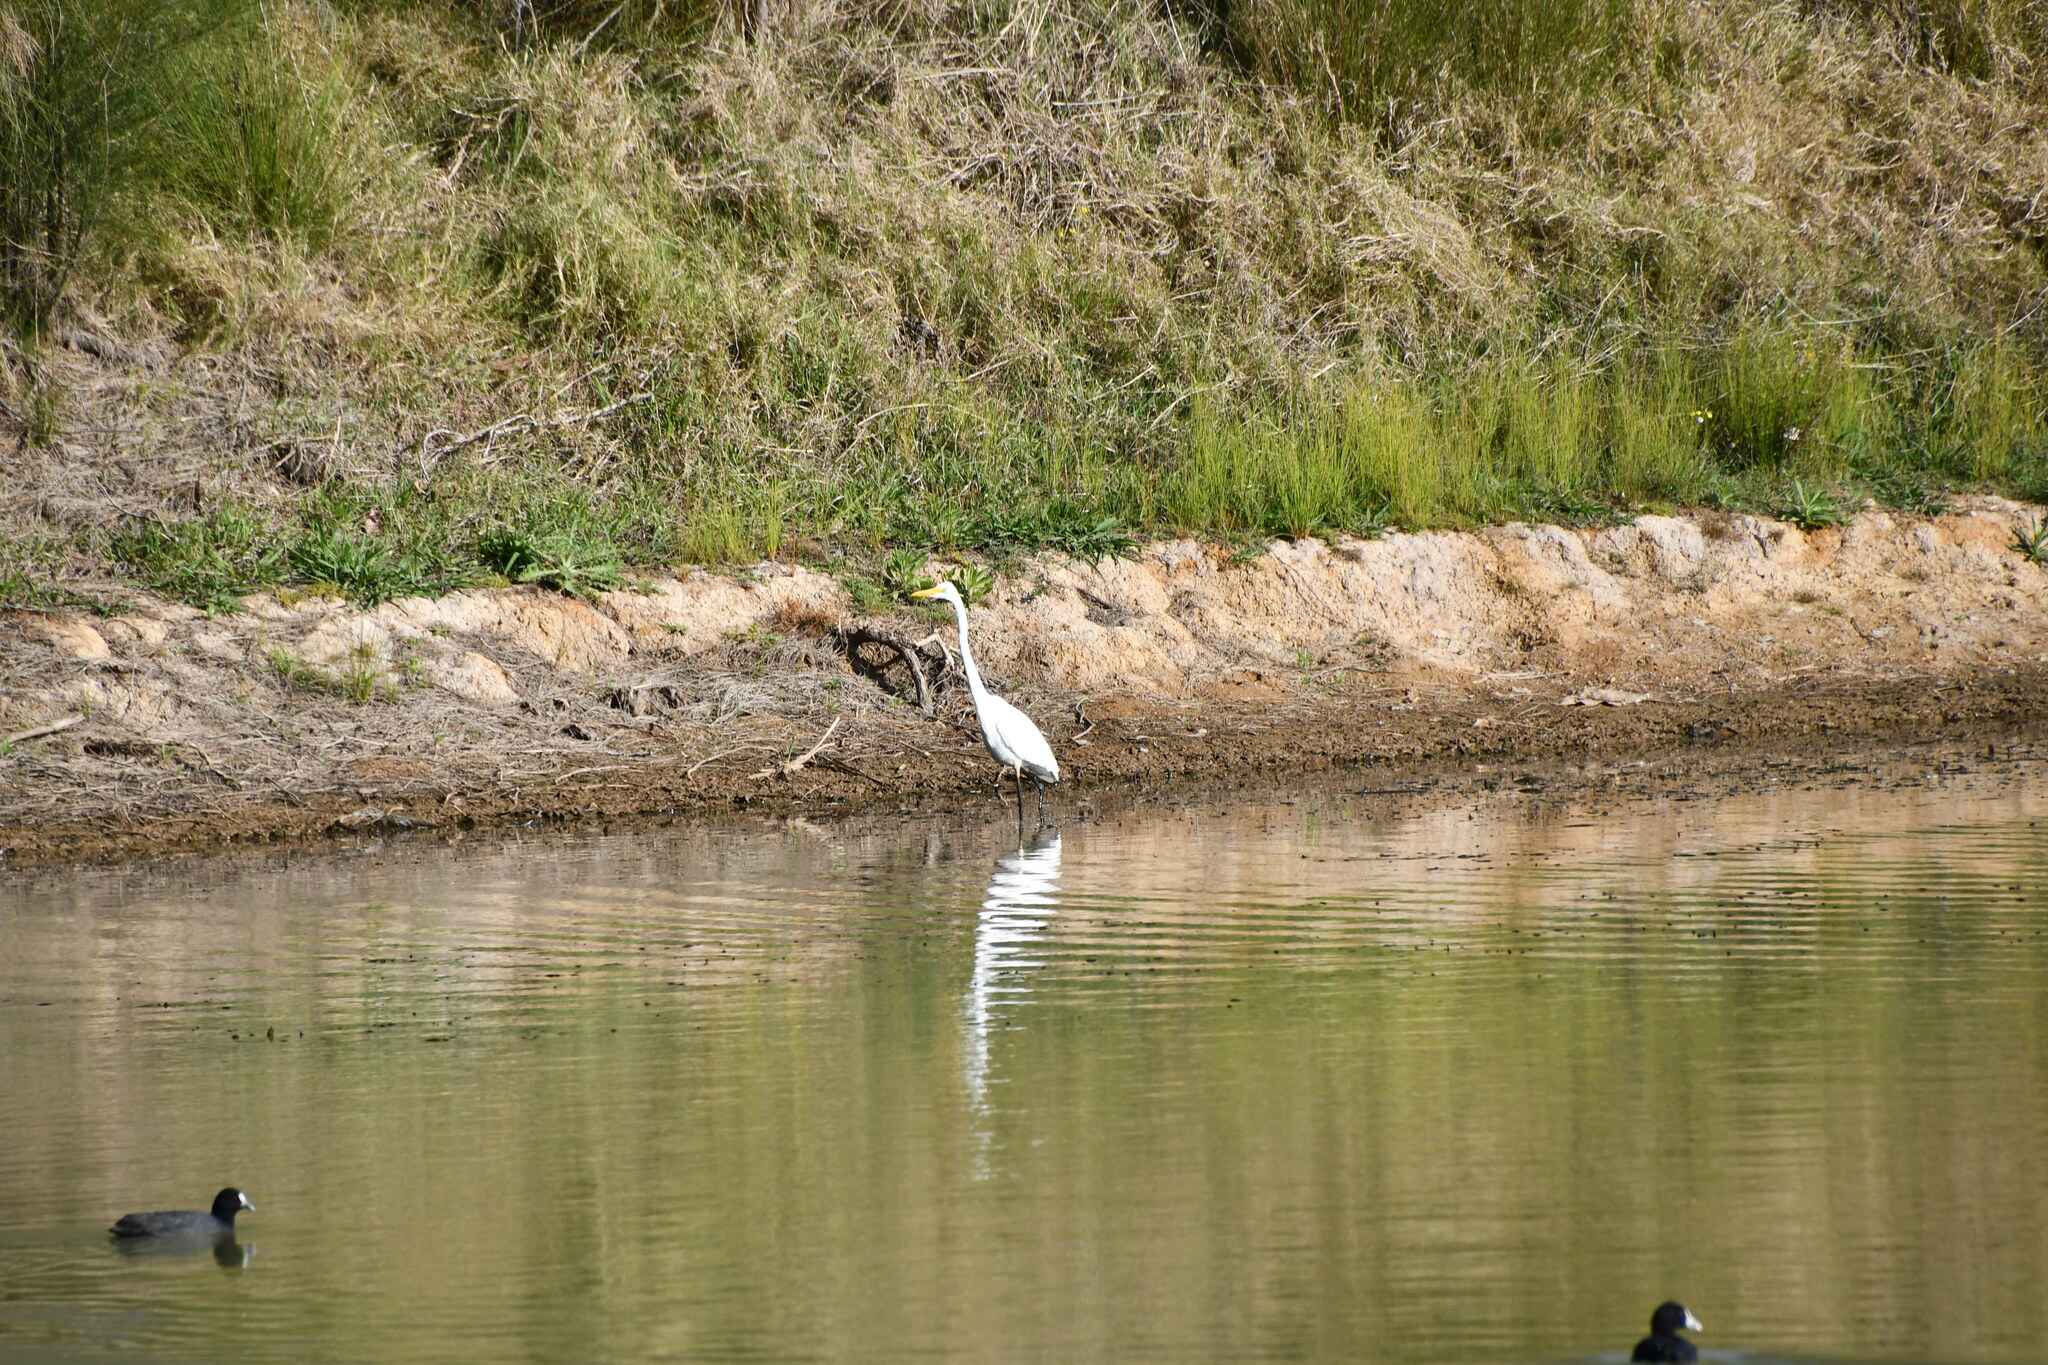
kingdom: Animalia
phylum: Chordata
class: Aves
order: Pelecaniformes
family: Ardeidae
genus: Ardea
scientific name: Ardea modesta
